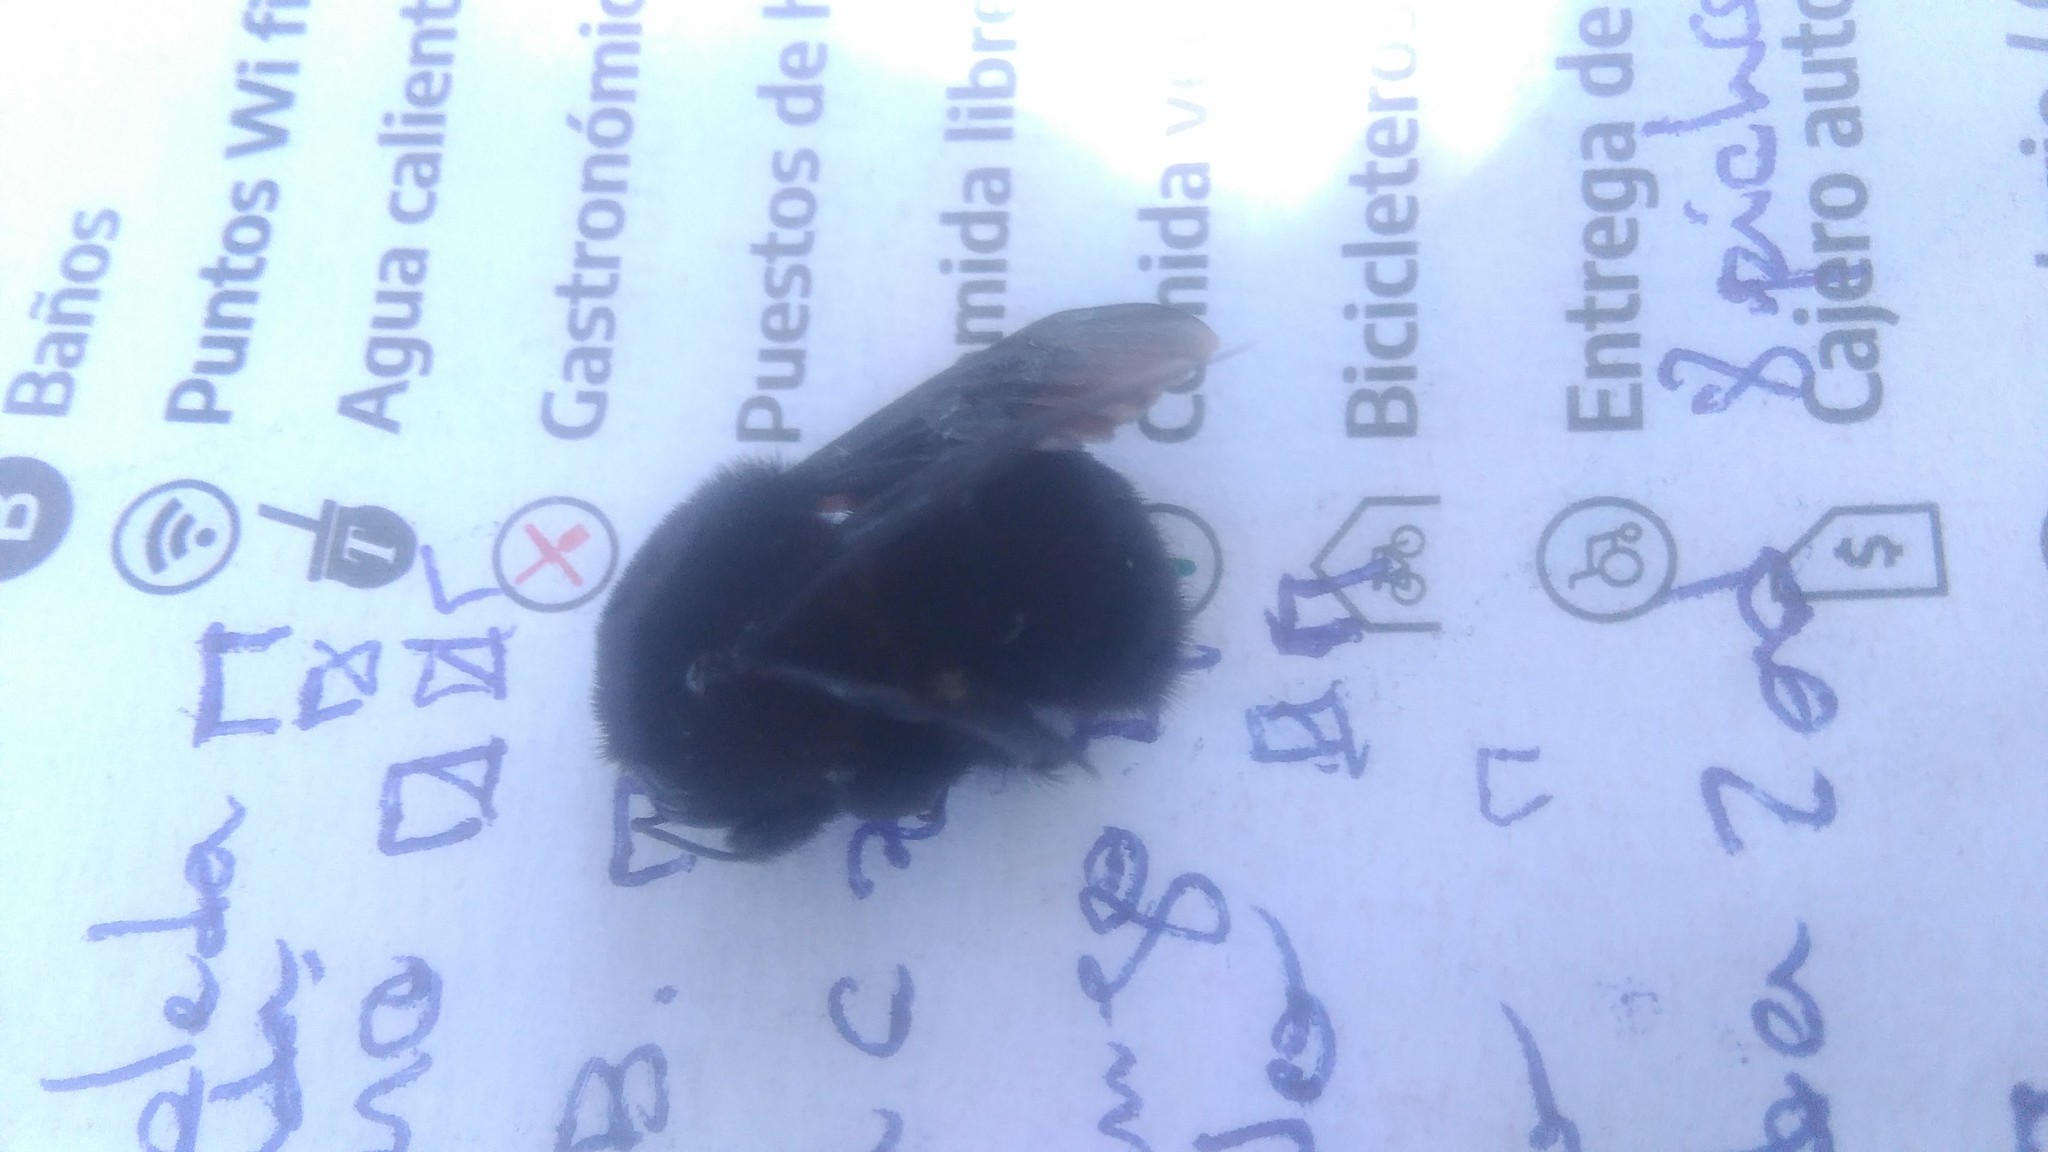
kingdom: Animalia
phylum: Arthropoda
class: Insecta
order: Hymenoptera
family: Apidae
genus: Bombus
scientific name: Bombus pauloensis
